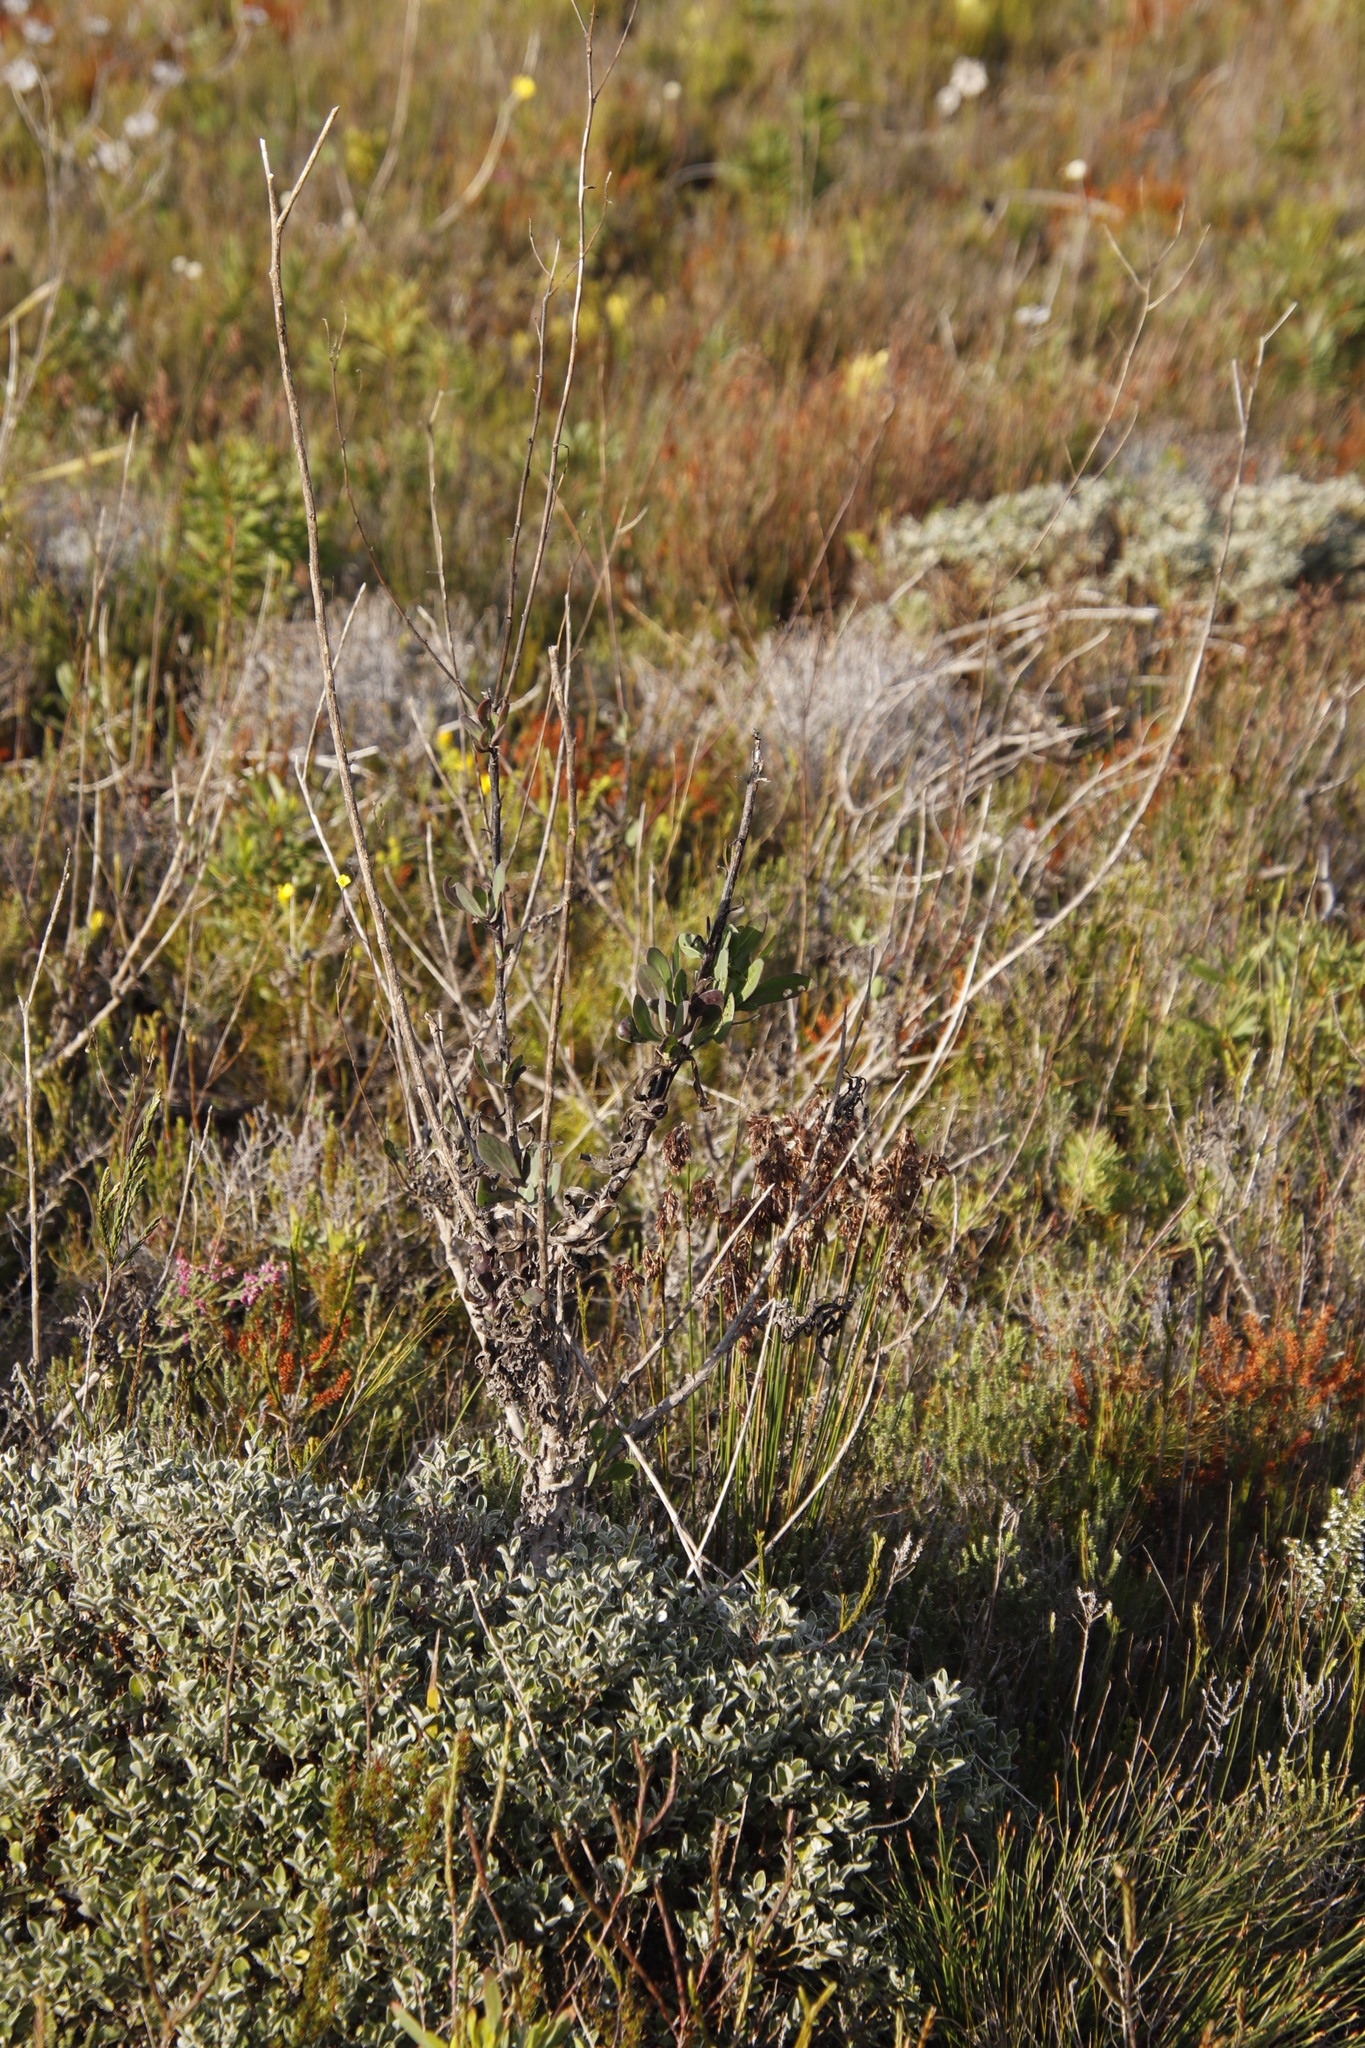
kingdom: Plantae
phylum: Tracheophyta
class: Magnoliopsida
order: Asterales
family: Asteraceae
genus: Othonna
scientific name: Othonna quinquedentata
